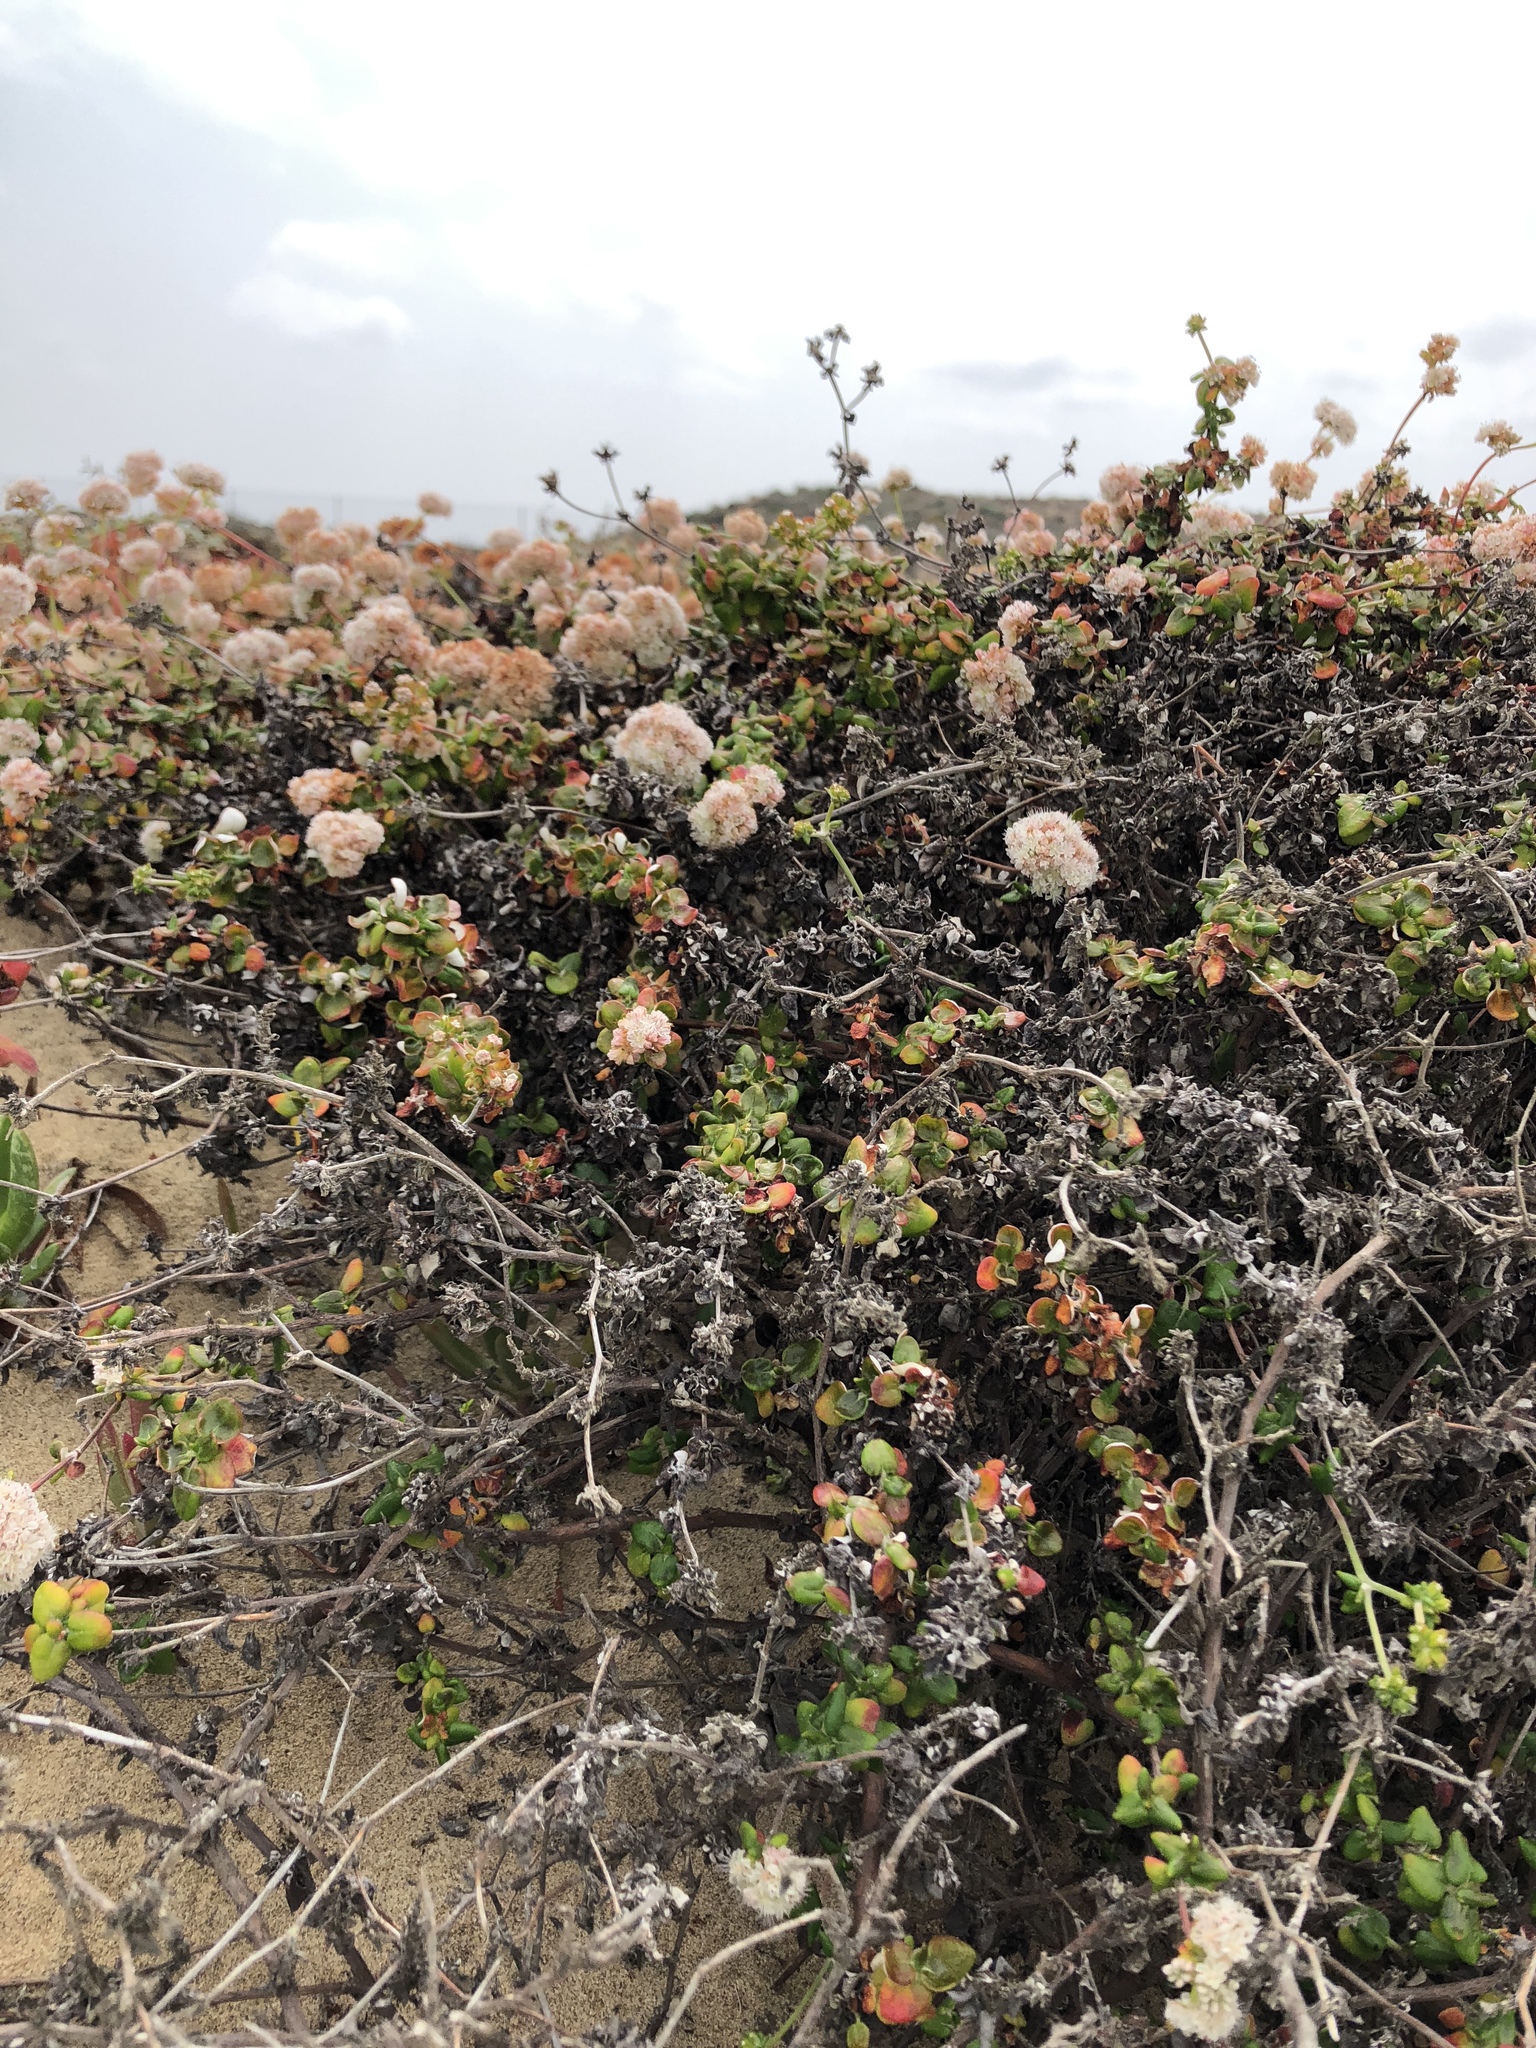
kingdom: Plantae
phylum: Tracheophyta
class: Magnoliopsida
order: Caryophyllales
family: Polygonaceae
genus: Eriogonum
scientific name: Eriogonum parvifolium
